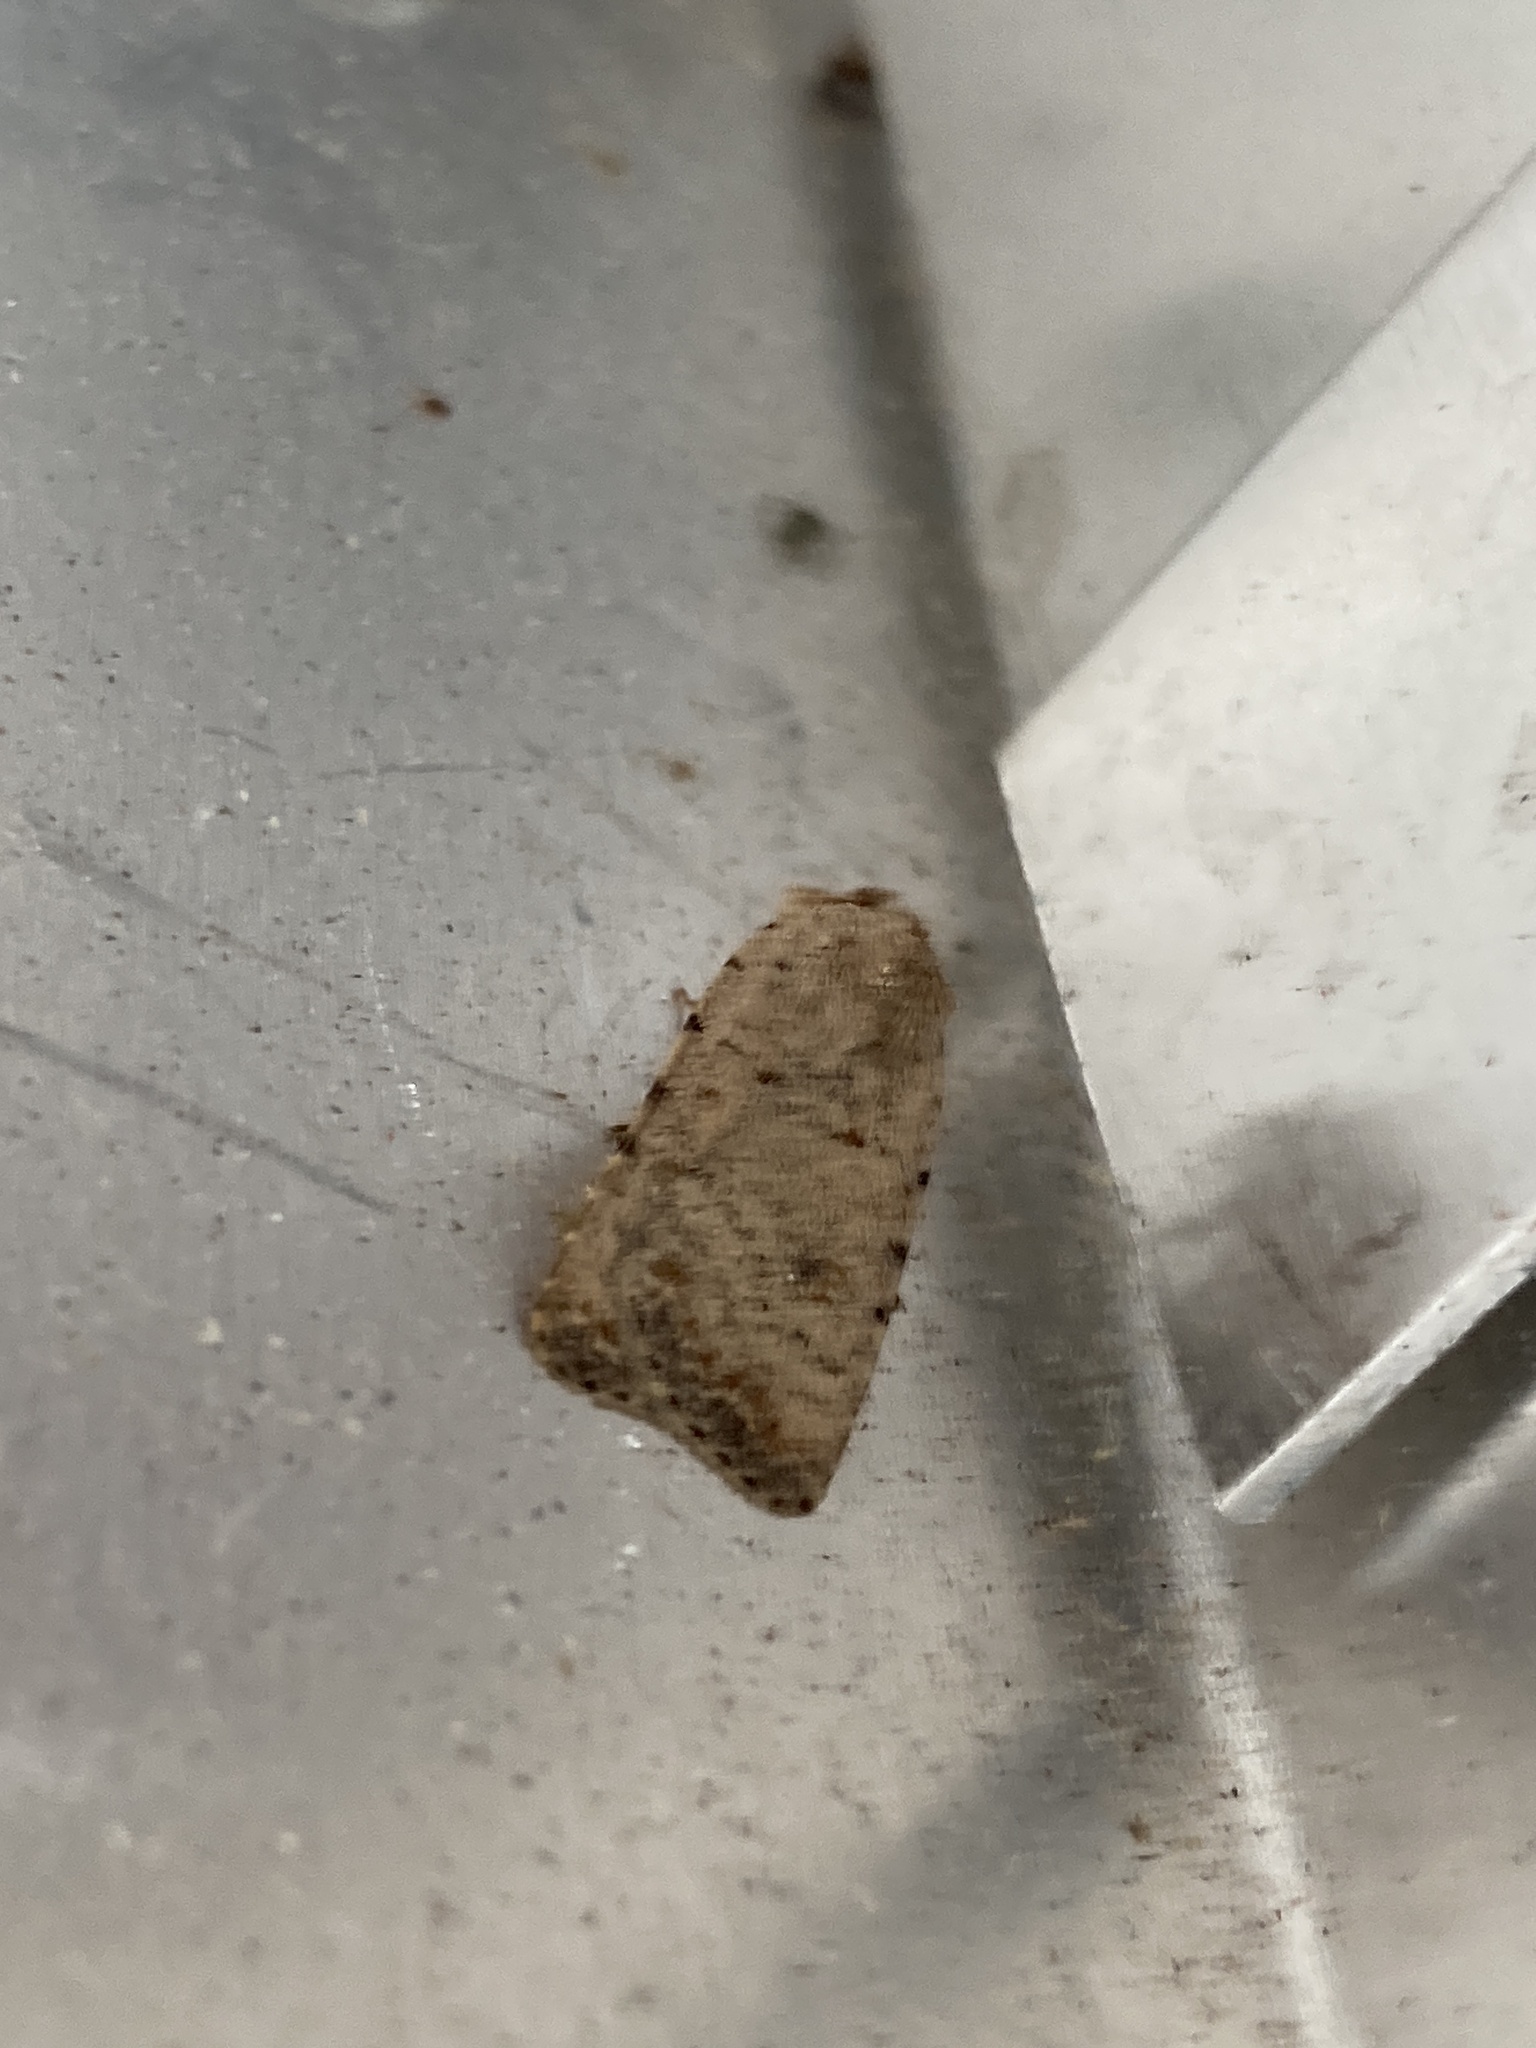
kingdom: Animalia
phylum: Arthropoda
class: Insecta
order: Lepidoptera
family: Noctuidae
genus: Caradrina
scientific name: Caradrina clavipalpis
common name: Pale mottled willow
